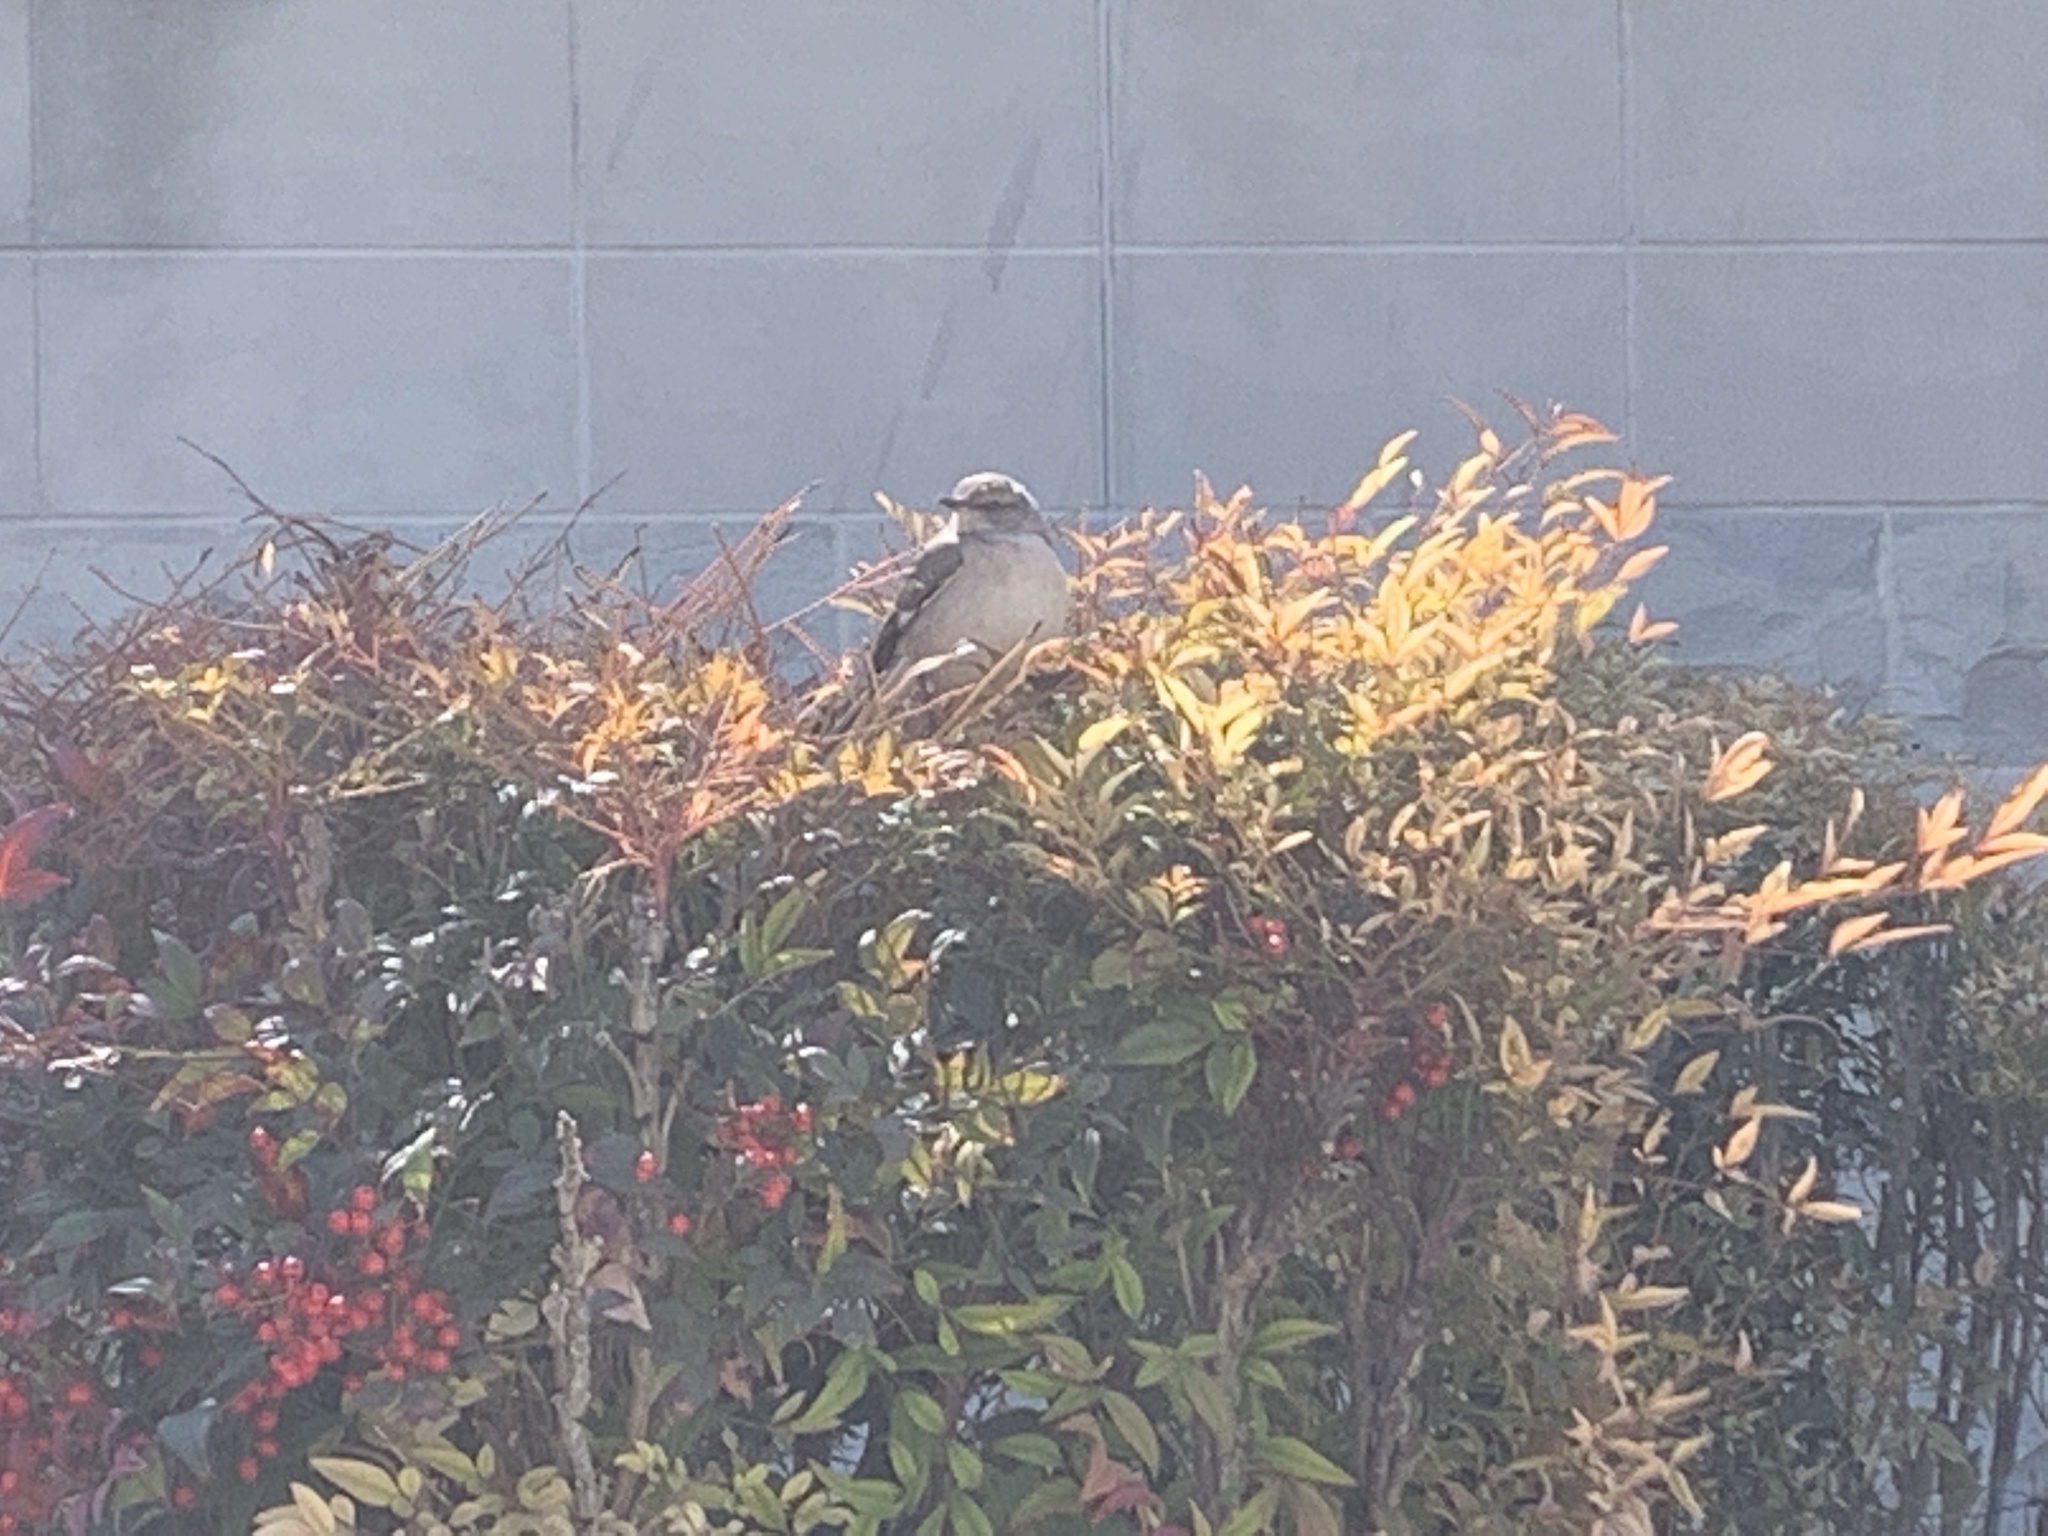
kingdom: Animalia
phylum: Chordata
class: Aves
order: Passeriformes
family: Mimidae
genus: Mimus
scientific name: Mimus polyglottos
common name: Northern mockingbird
